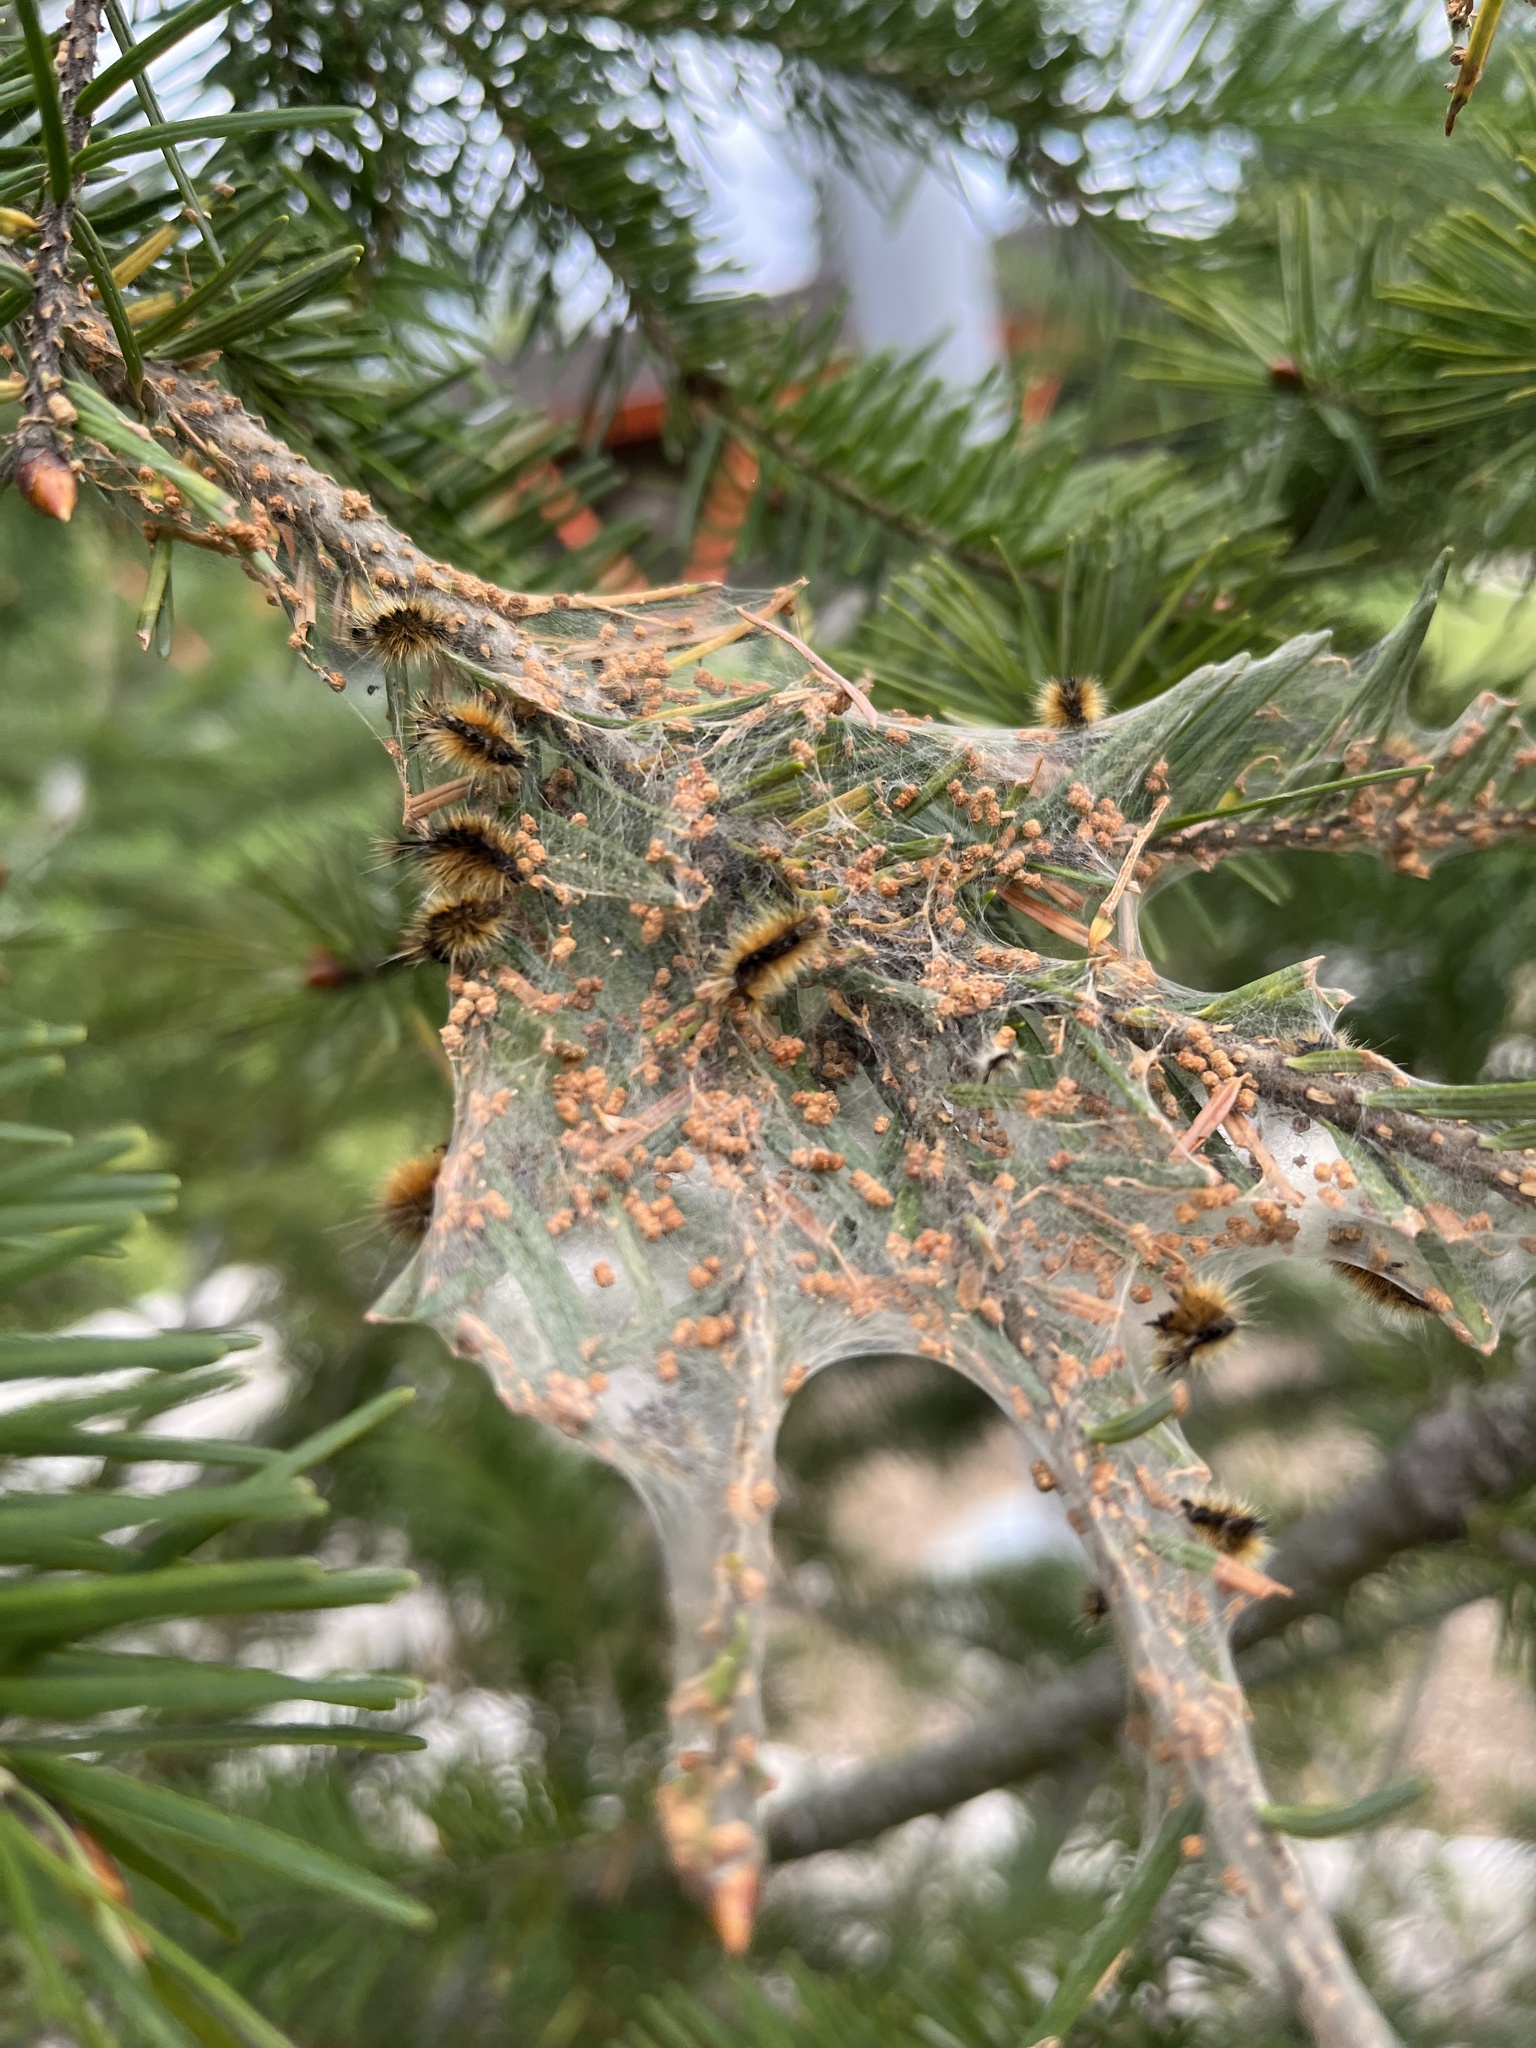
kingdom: Animalia
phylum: Arthropoda
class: Insecta
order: Lepidoptera
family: Erebidae
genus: Lophocampa
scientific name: Lophocampa argentata
